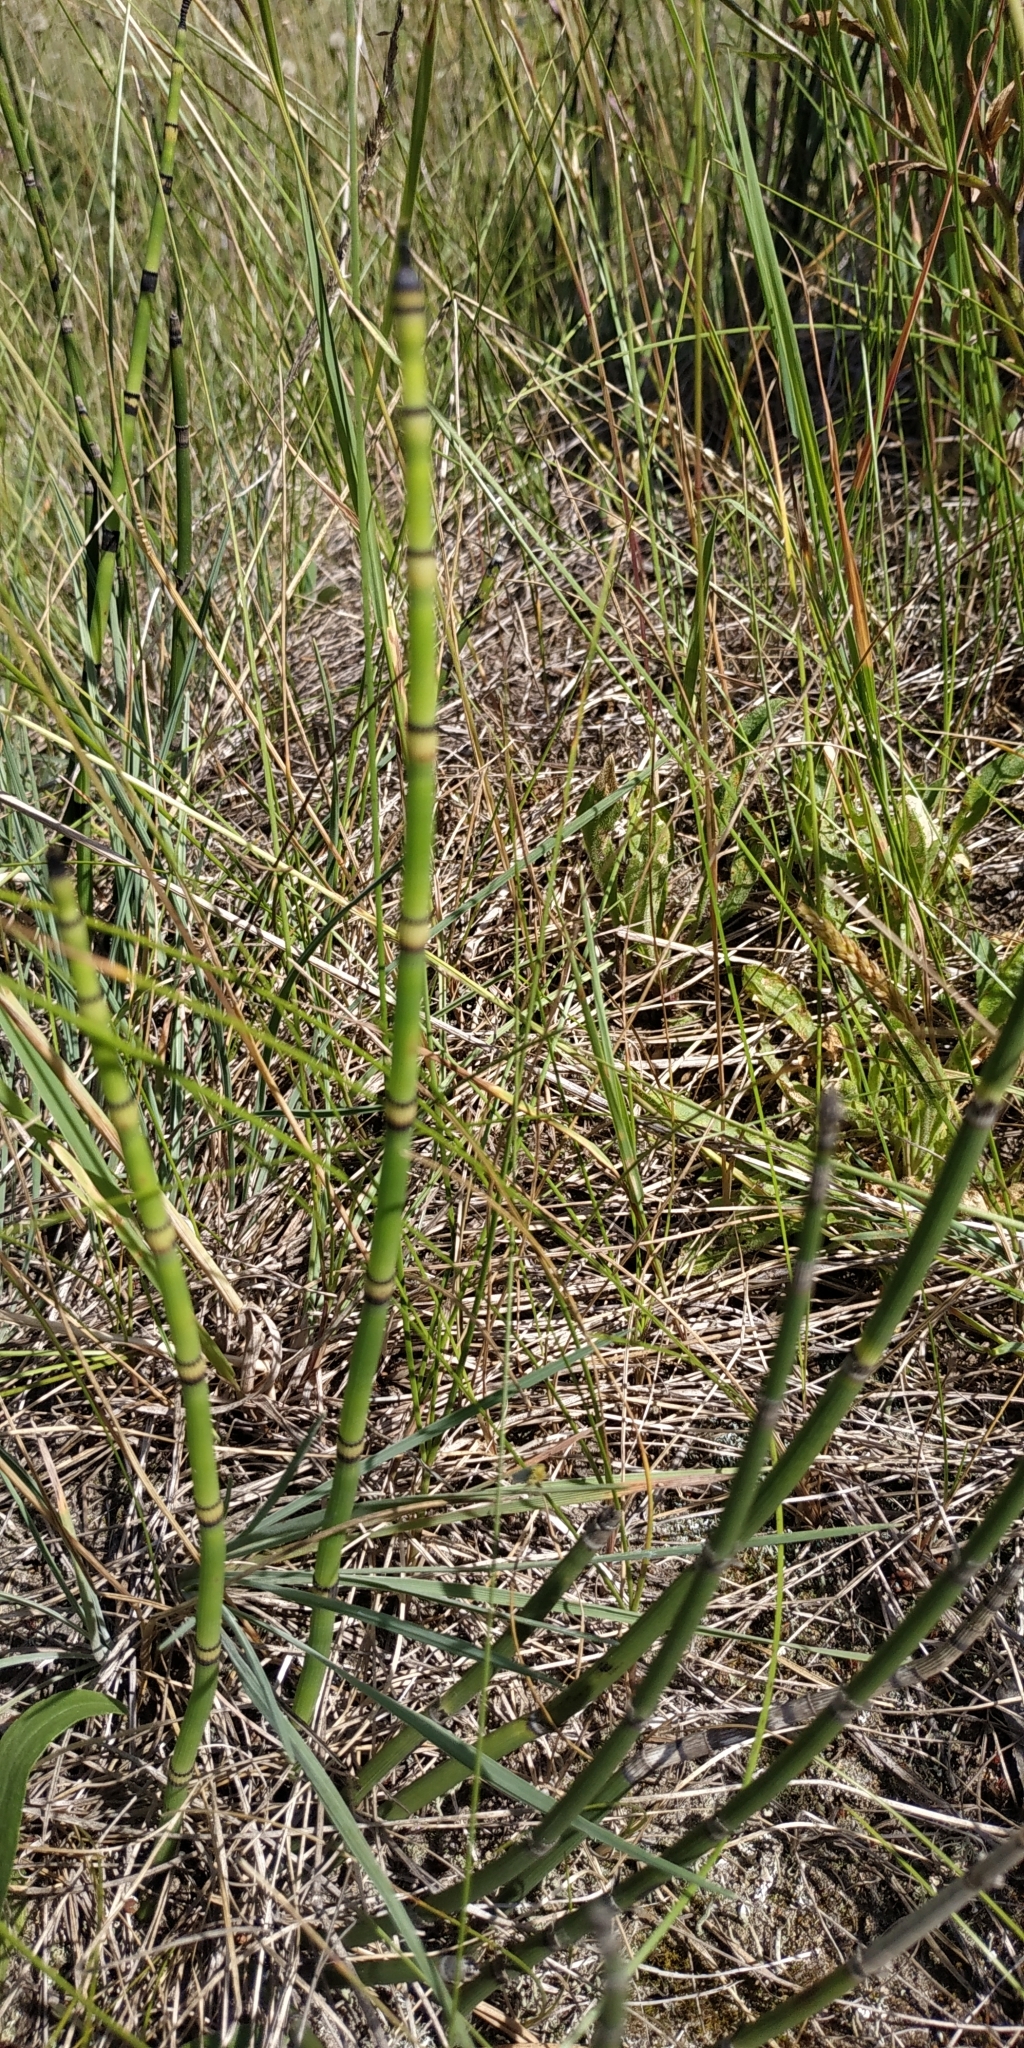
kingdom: Plantae
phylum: Tracheophyta
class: Polypodiopsida
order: Equisetales
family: Equisetaceae
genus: Equisetum
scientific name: Equisetum hyemale
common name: Rough horsetail
